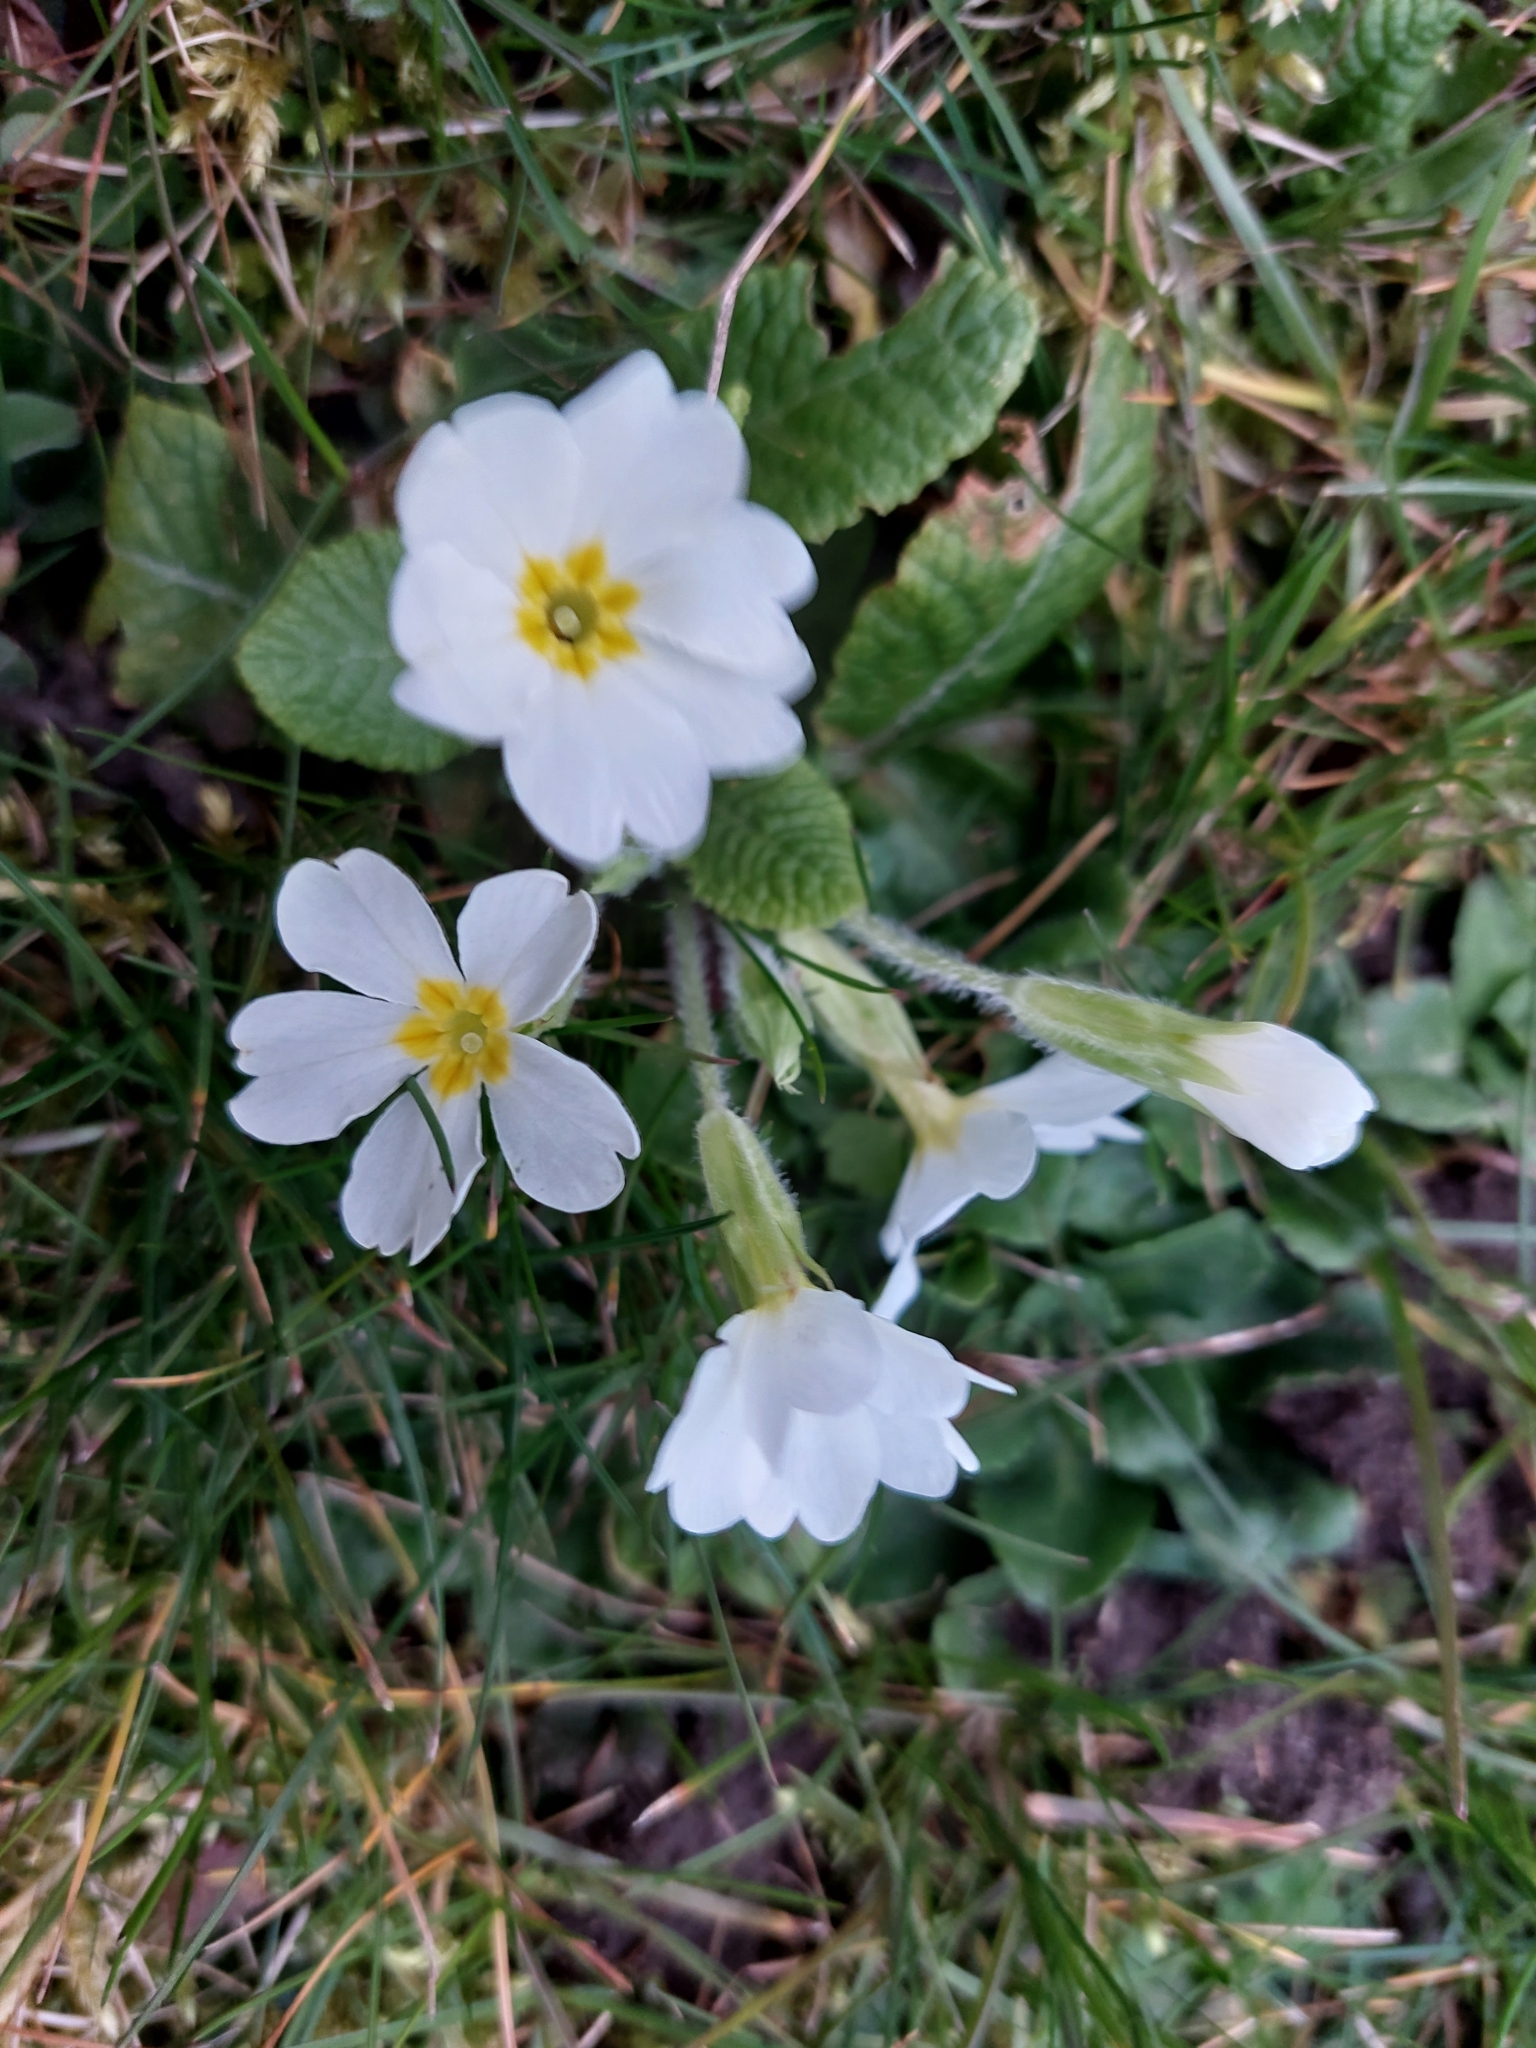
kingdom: Plantae
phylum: Tracheophyta
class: Magnoliopsida
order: Ericales
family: Primulaceae
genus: Primula
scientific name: Primula vulgaris
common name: Primrose
